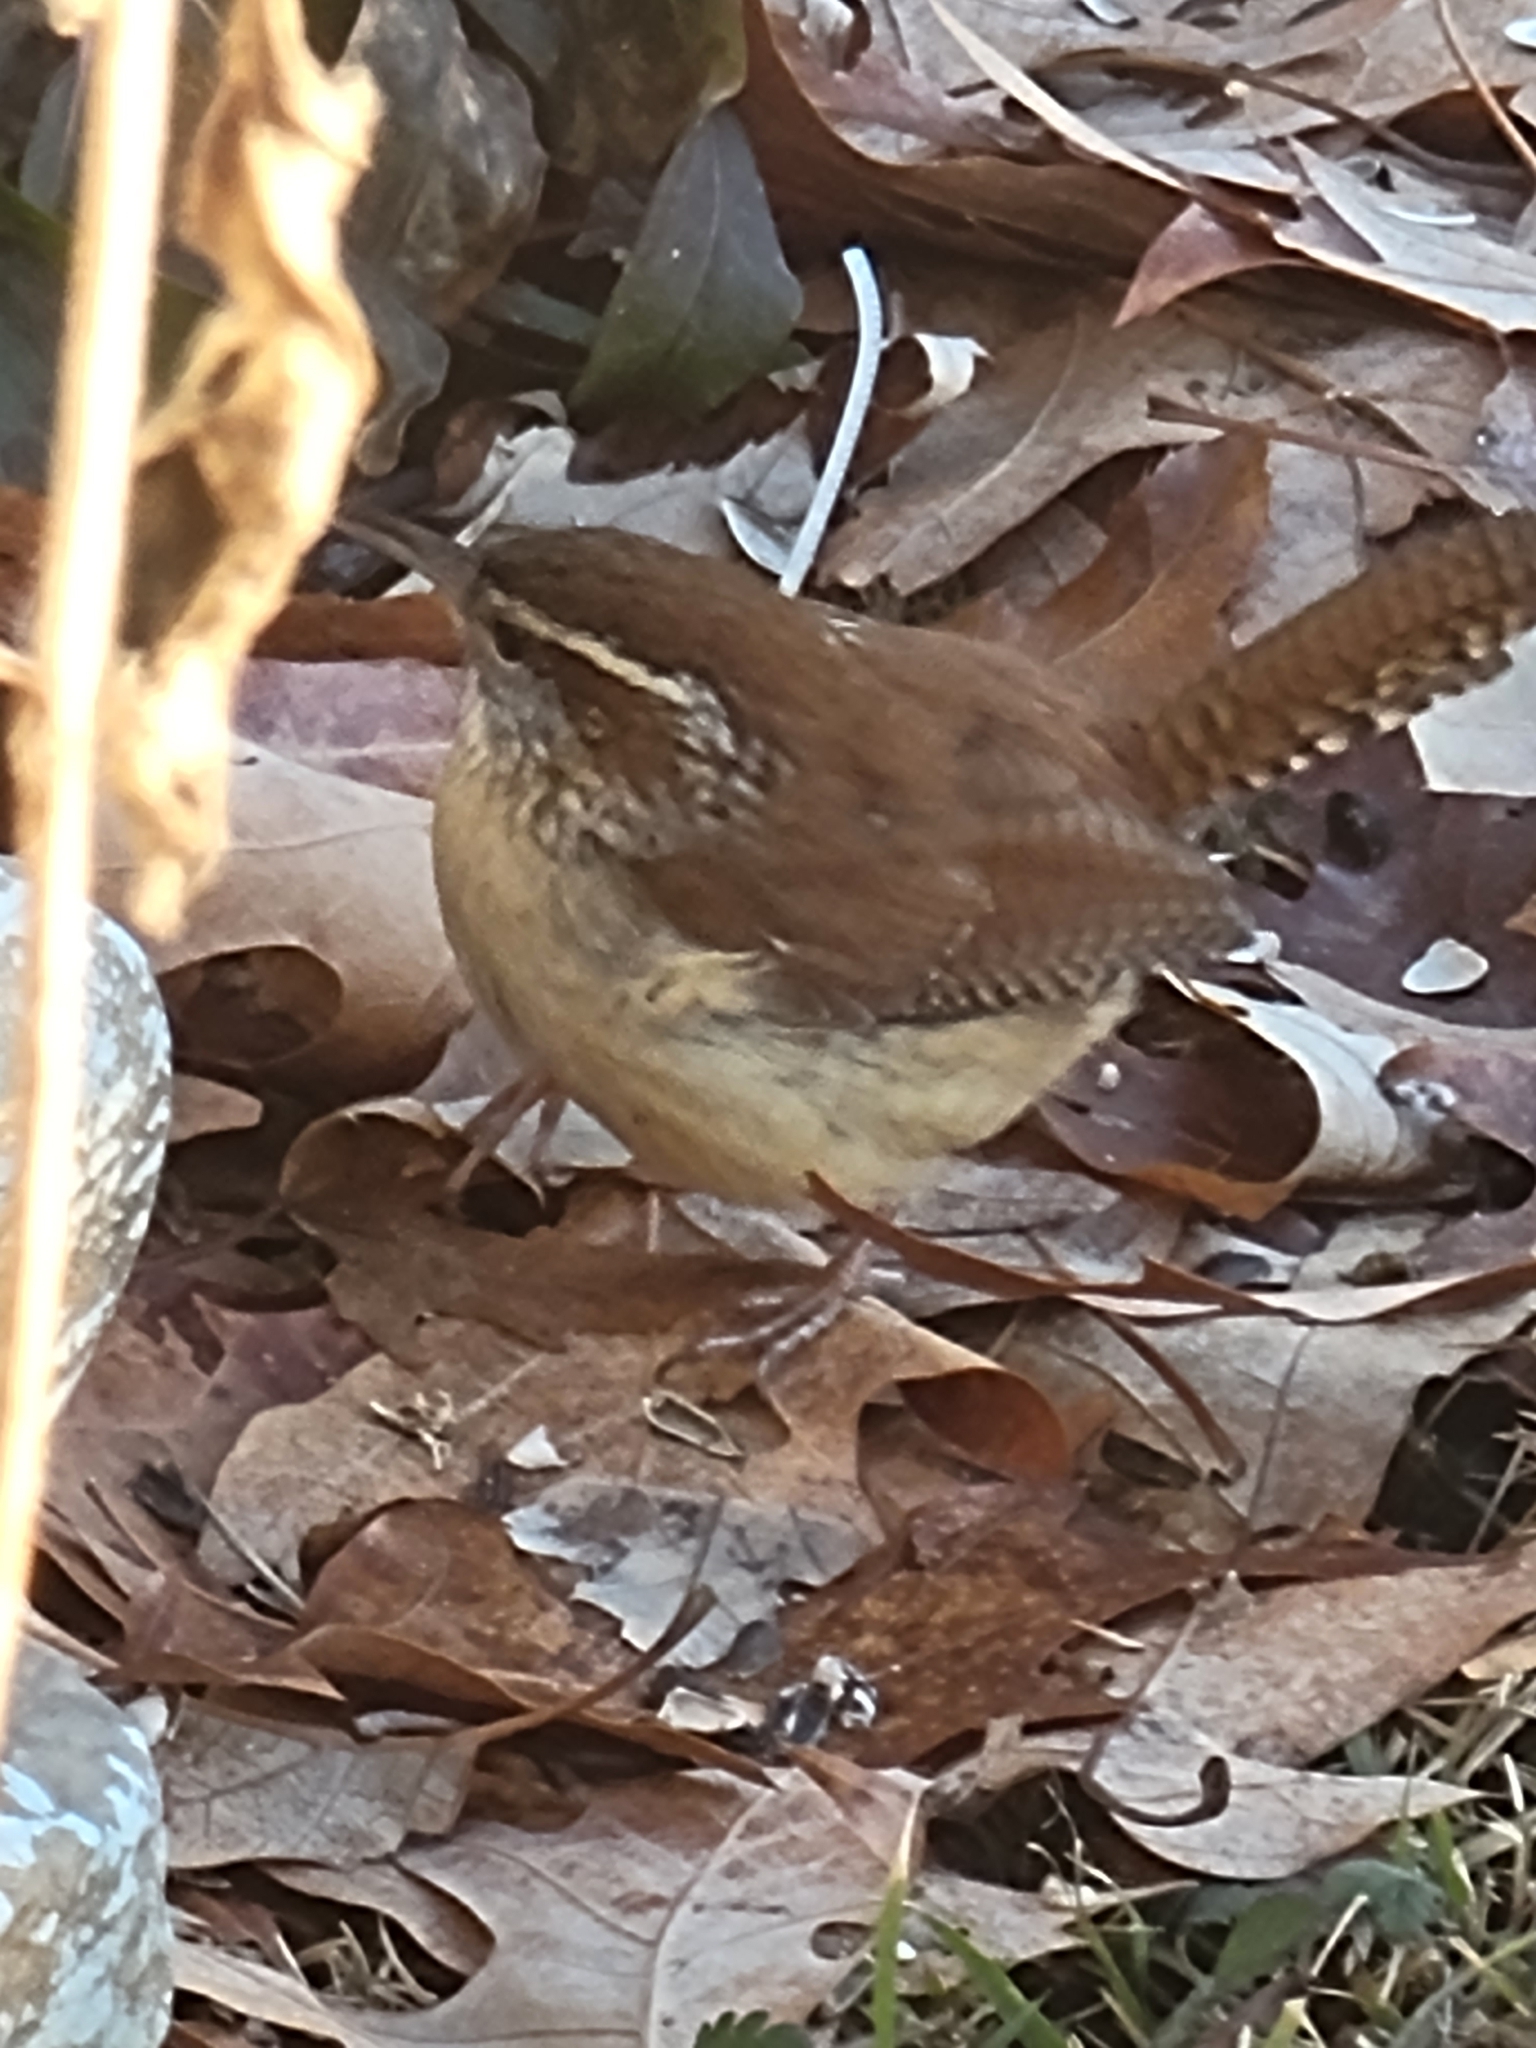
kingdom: Animalia
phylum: Chordata
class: Aves
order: Passeriformes
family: Troglodytidae
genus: Thryothorus
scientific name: Thryothorus ludovicianus
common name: Carolina wren
